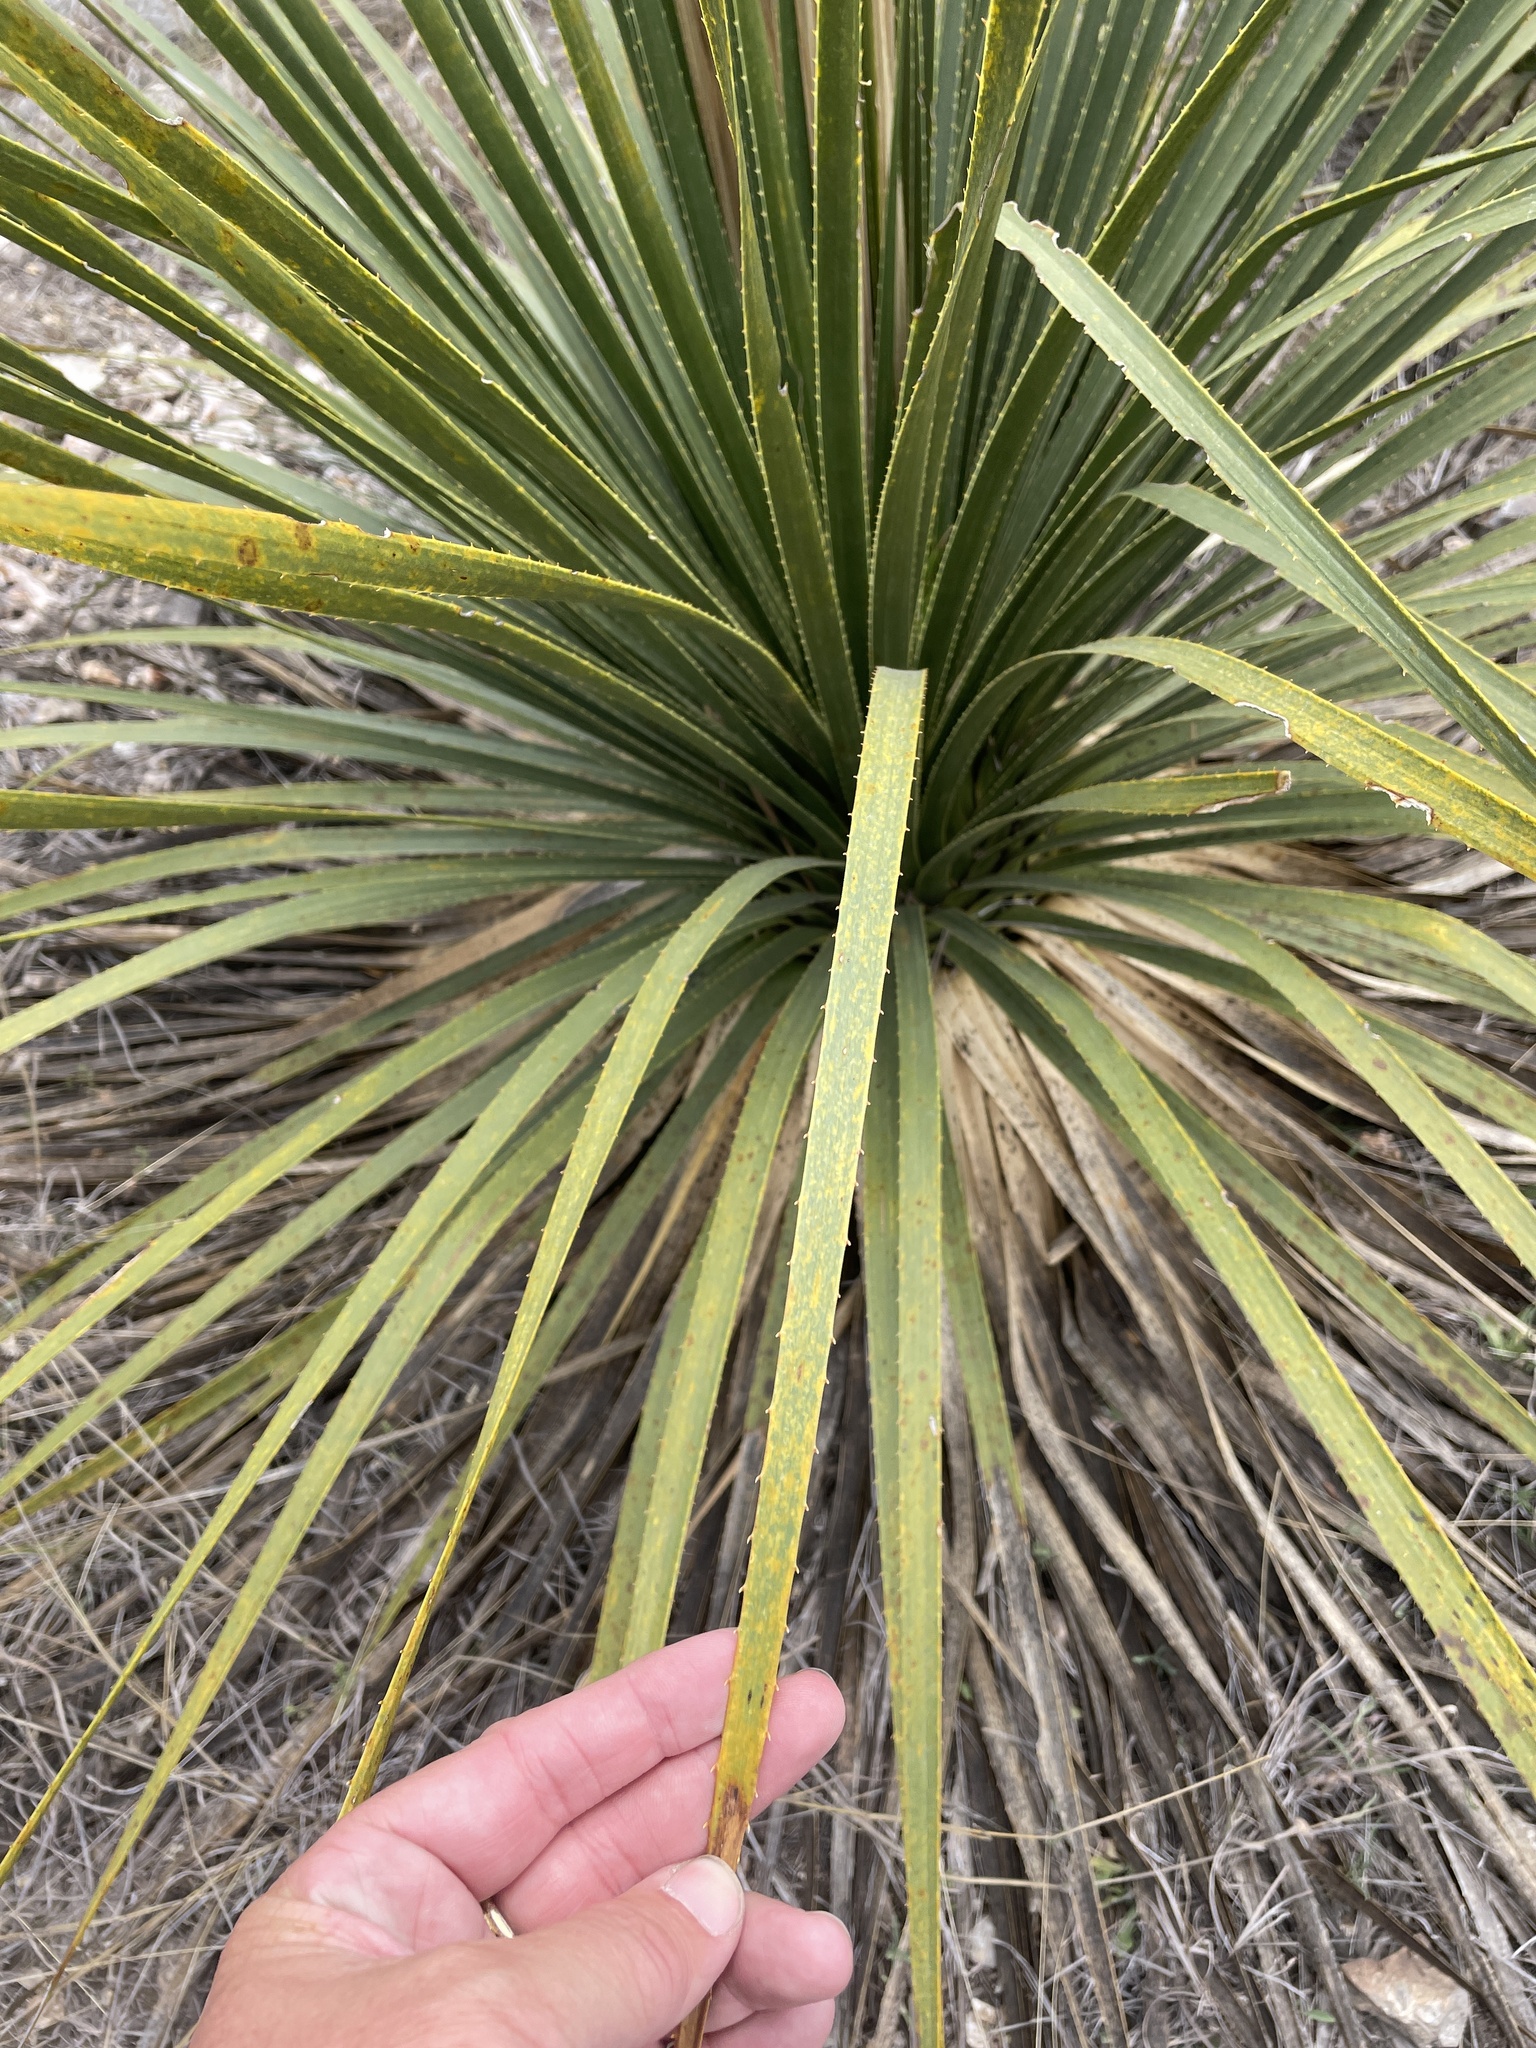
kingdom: Plantae
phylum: Tracheophyta
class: Liliopsida
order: Asparagales
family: Asparagaceae
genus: Dasylirion
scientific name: Dasylirion texanum
